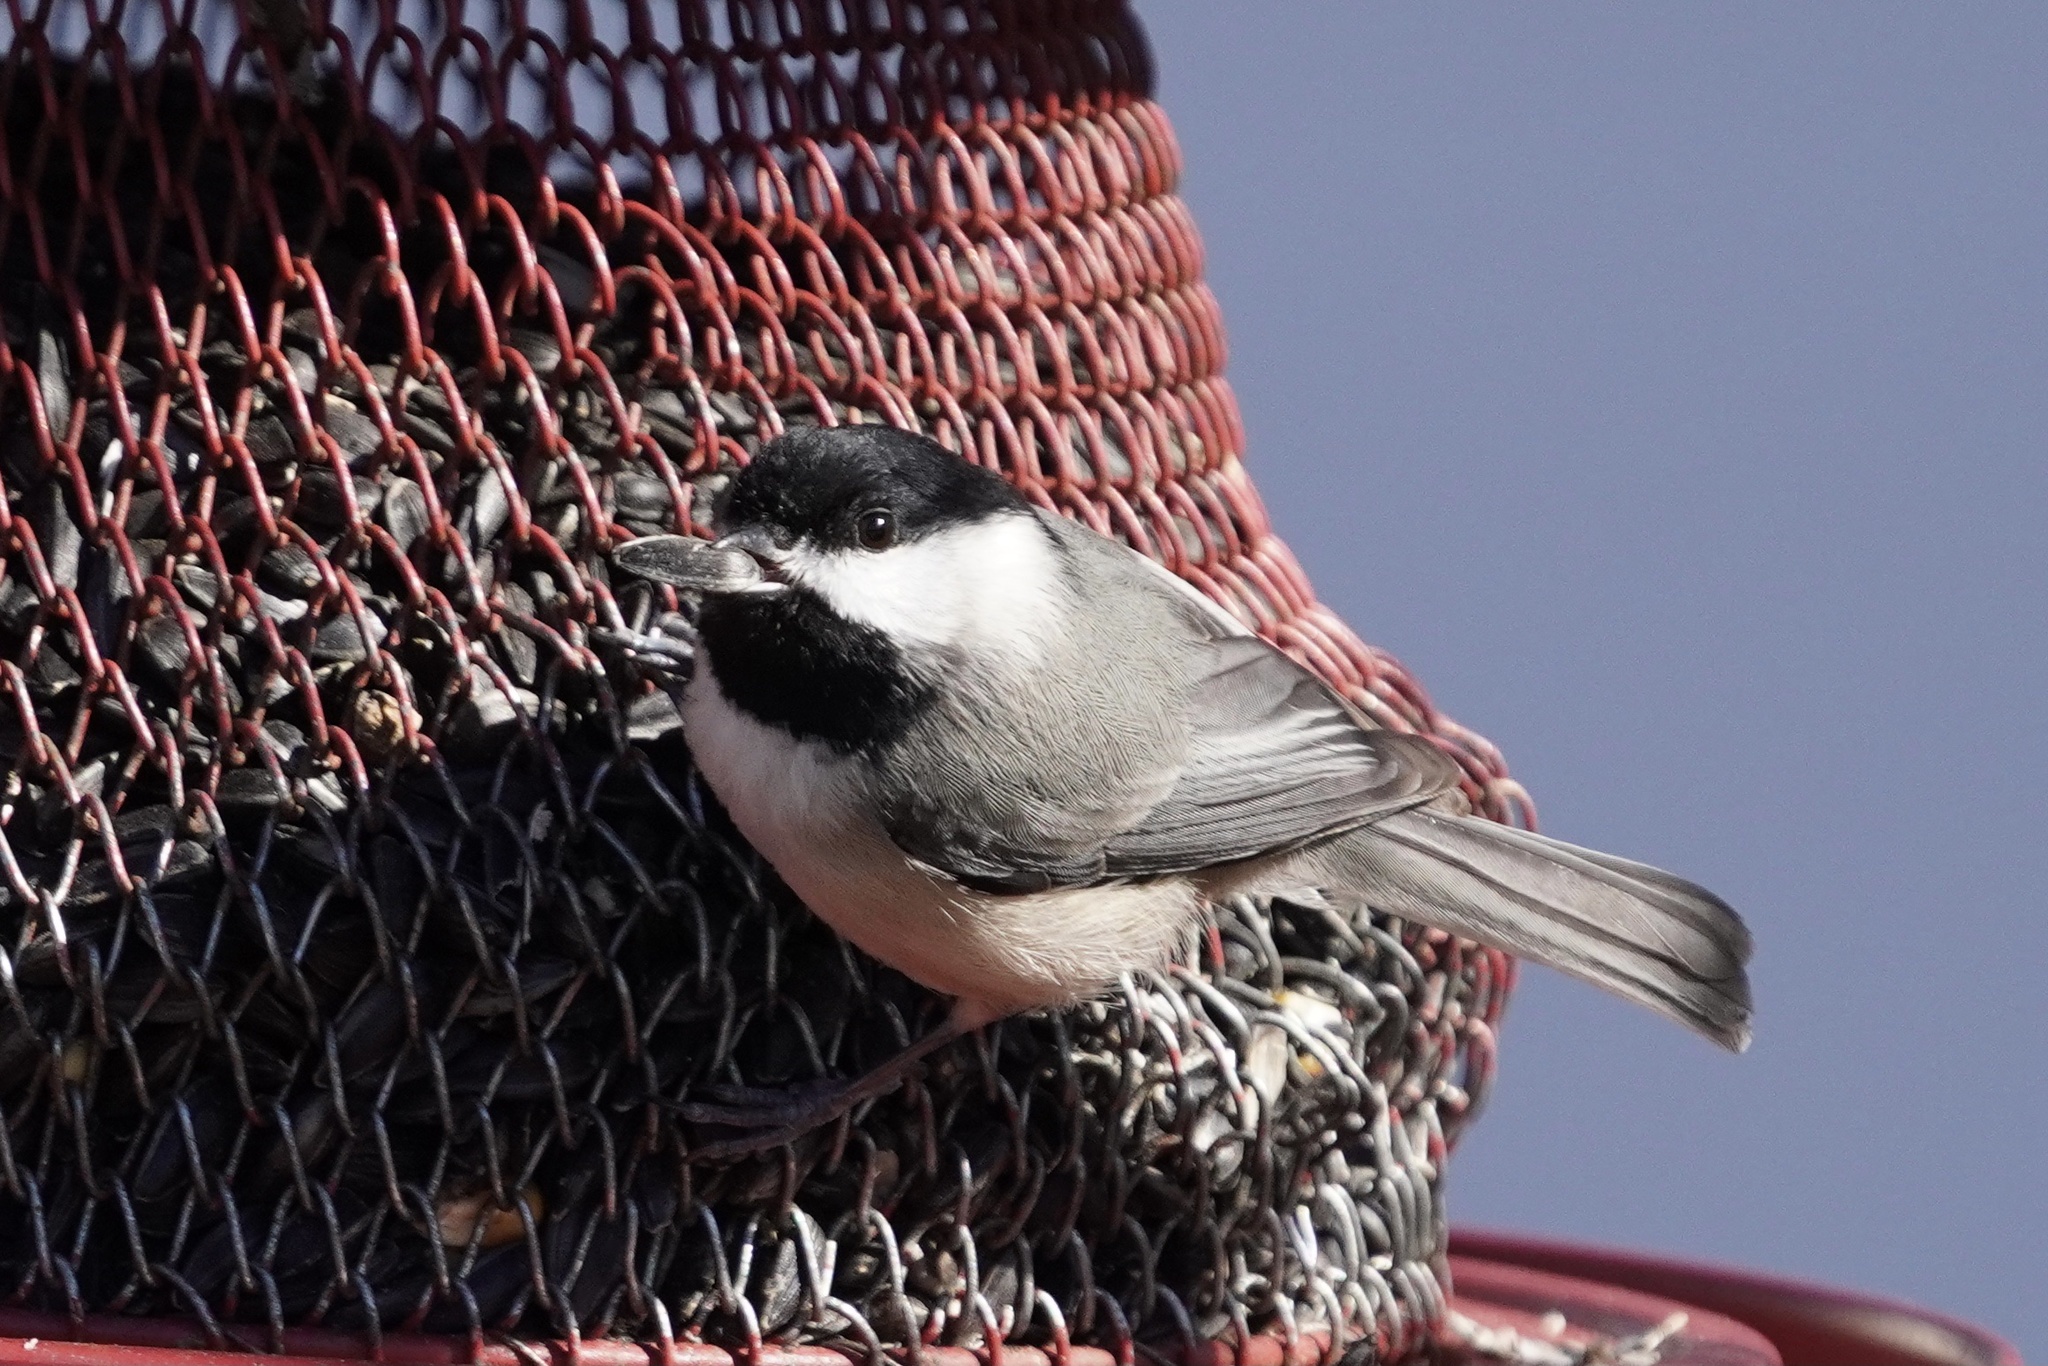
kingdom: Animalia
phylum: Chordata
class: Aves
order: Passeriformes
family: Paridae
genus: Poecile
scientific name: Poecile carolinensis
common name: Carolina chickadee
